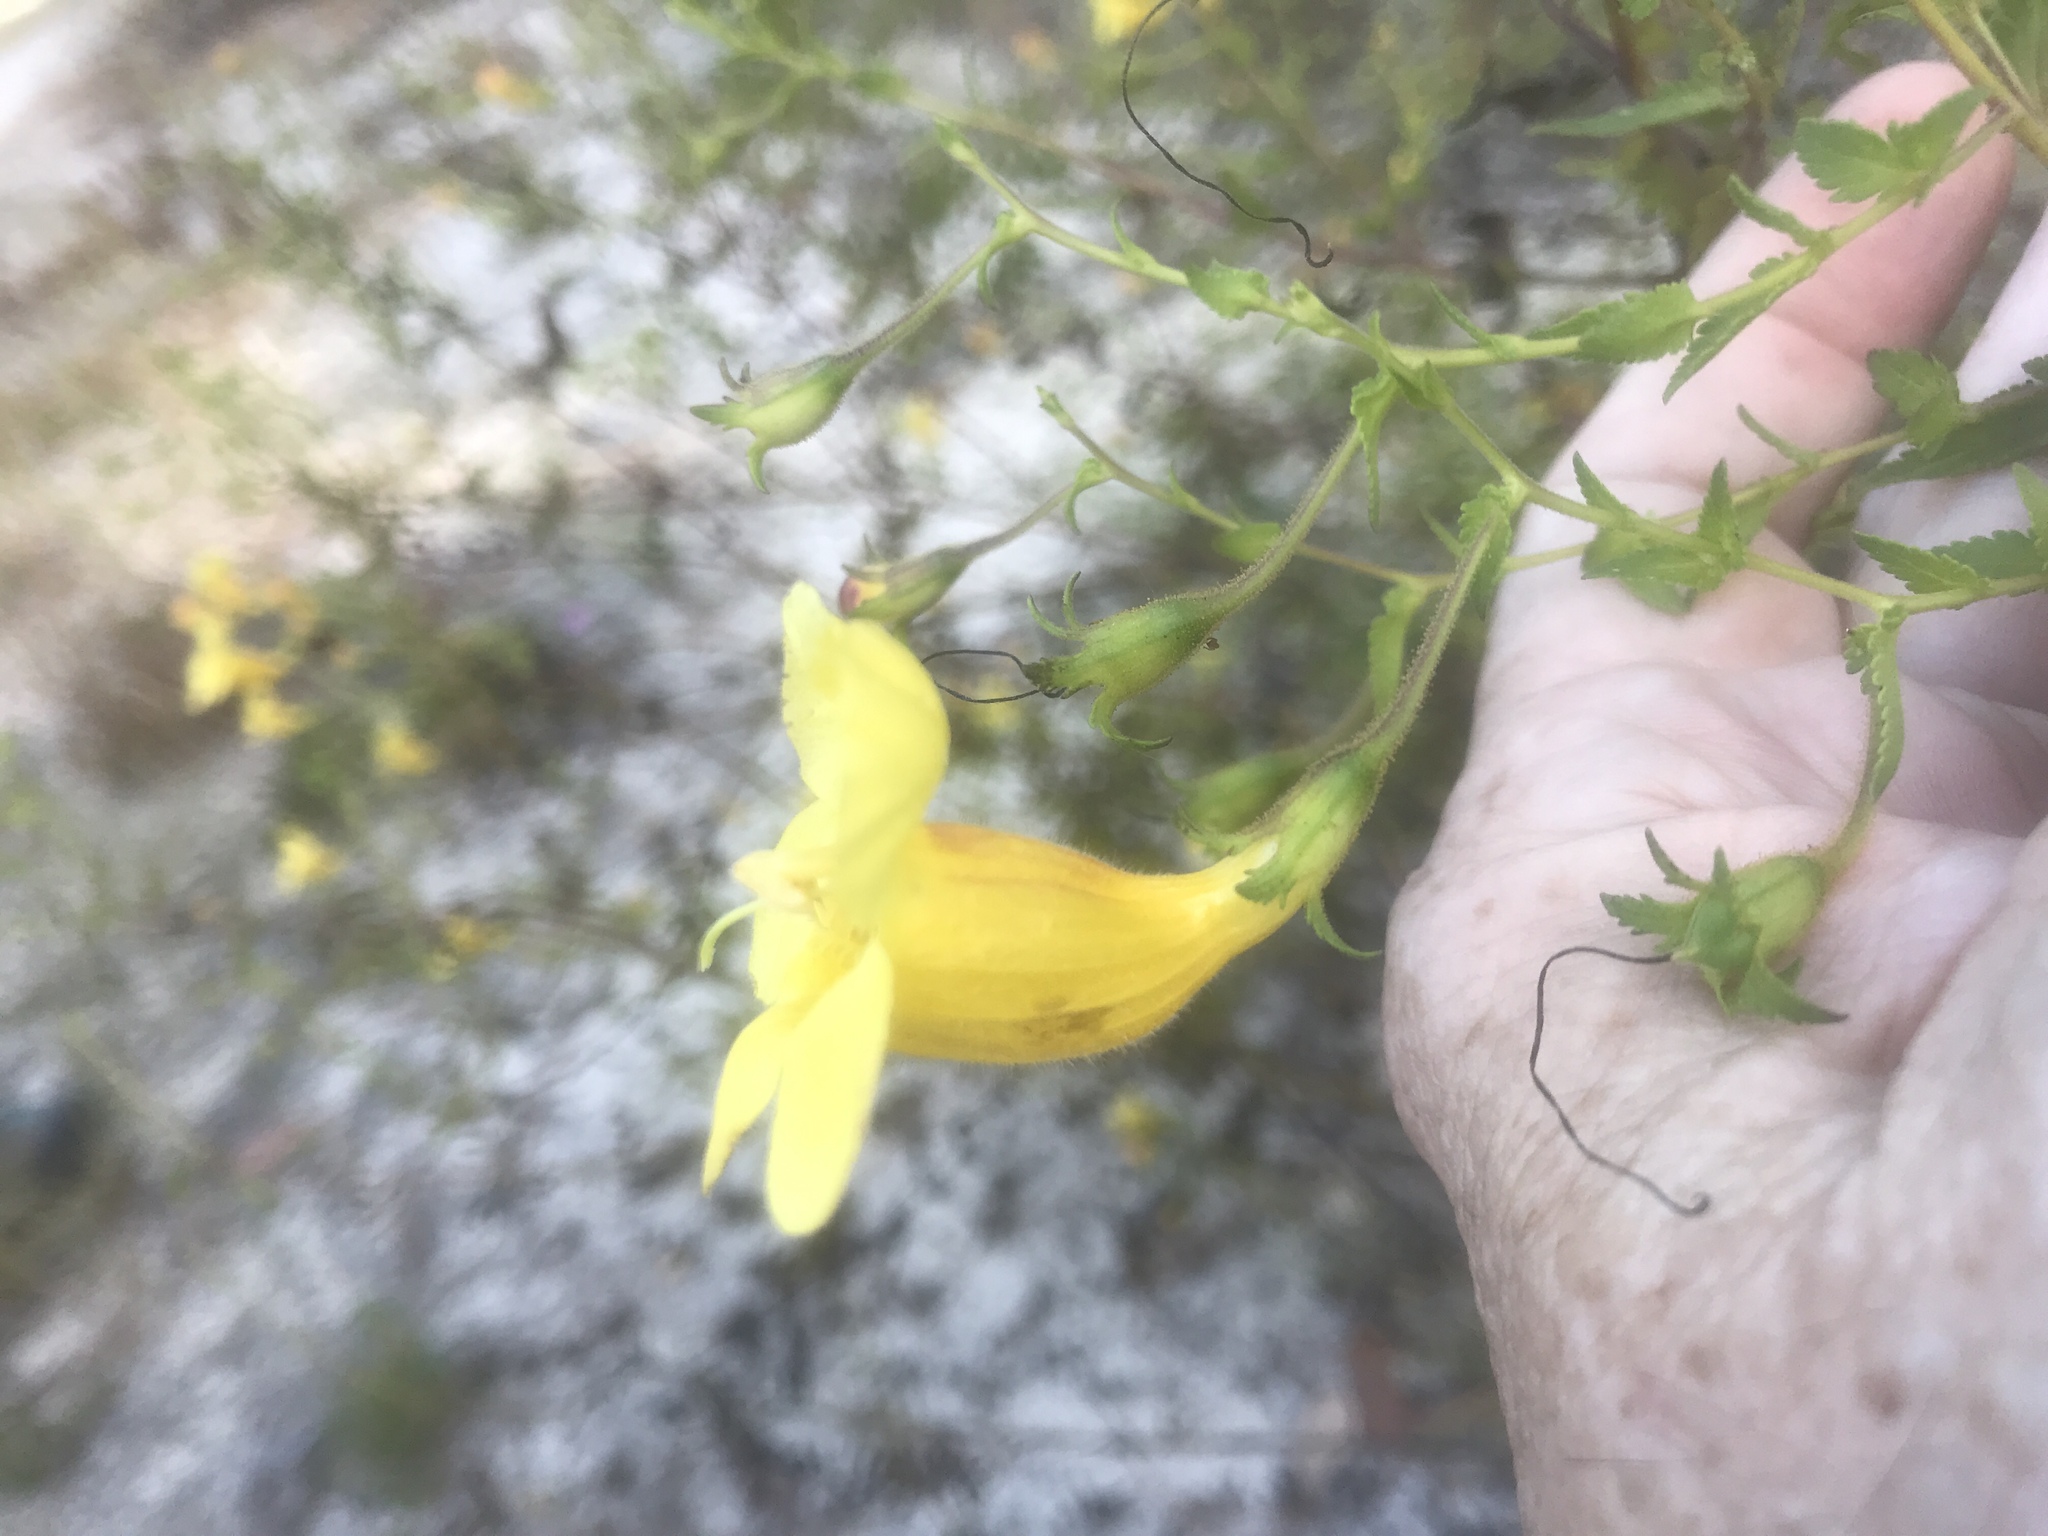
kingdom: Plantae
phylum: Tracheophyta
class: Magnoliopsida
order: Lamiales
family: Orobanchaceae
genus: Aureolaria
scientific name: Aureolaria pedicularia
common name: Annual false foxglove
